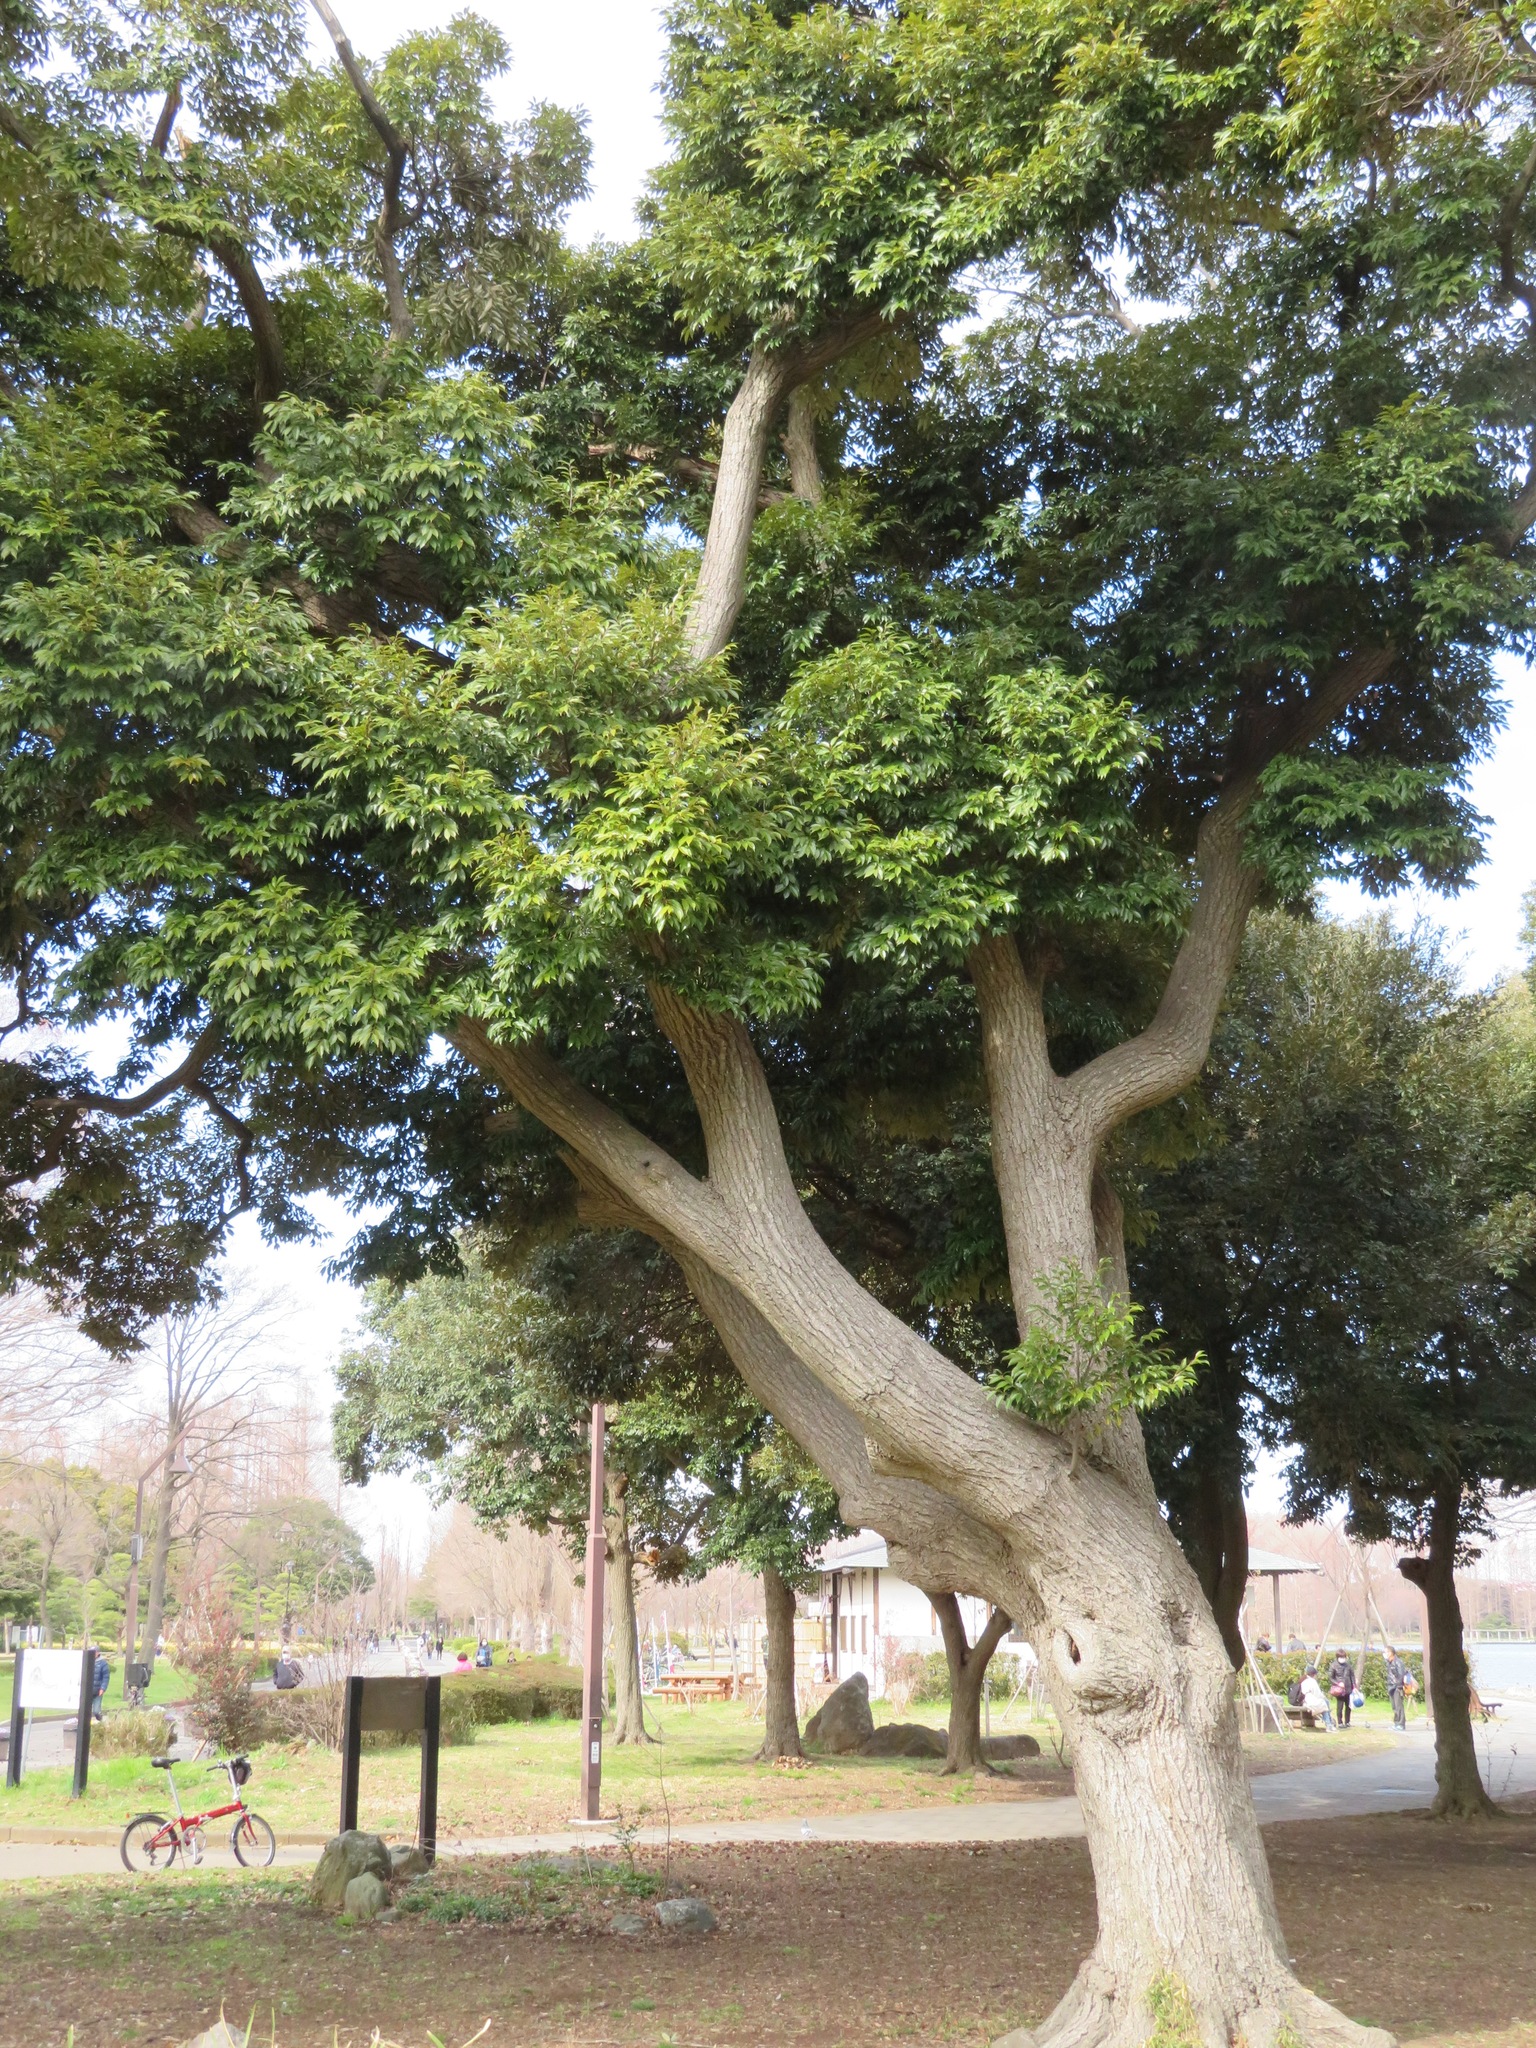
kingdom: Plantae
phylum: Tracheophyta
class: Magnoliopsida
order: Fagales
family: Fagaceae
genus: Castanopsis
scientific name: Castanopsis sieboldii
